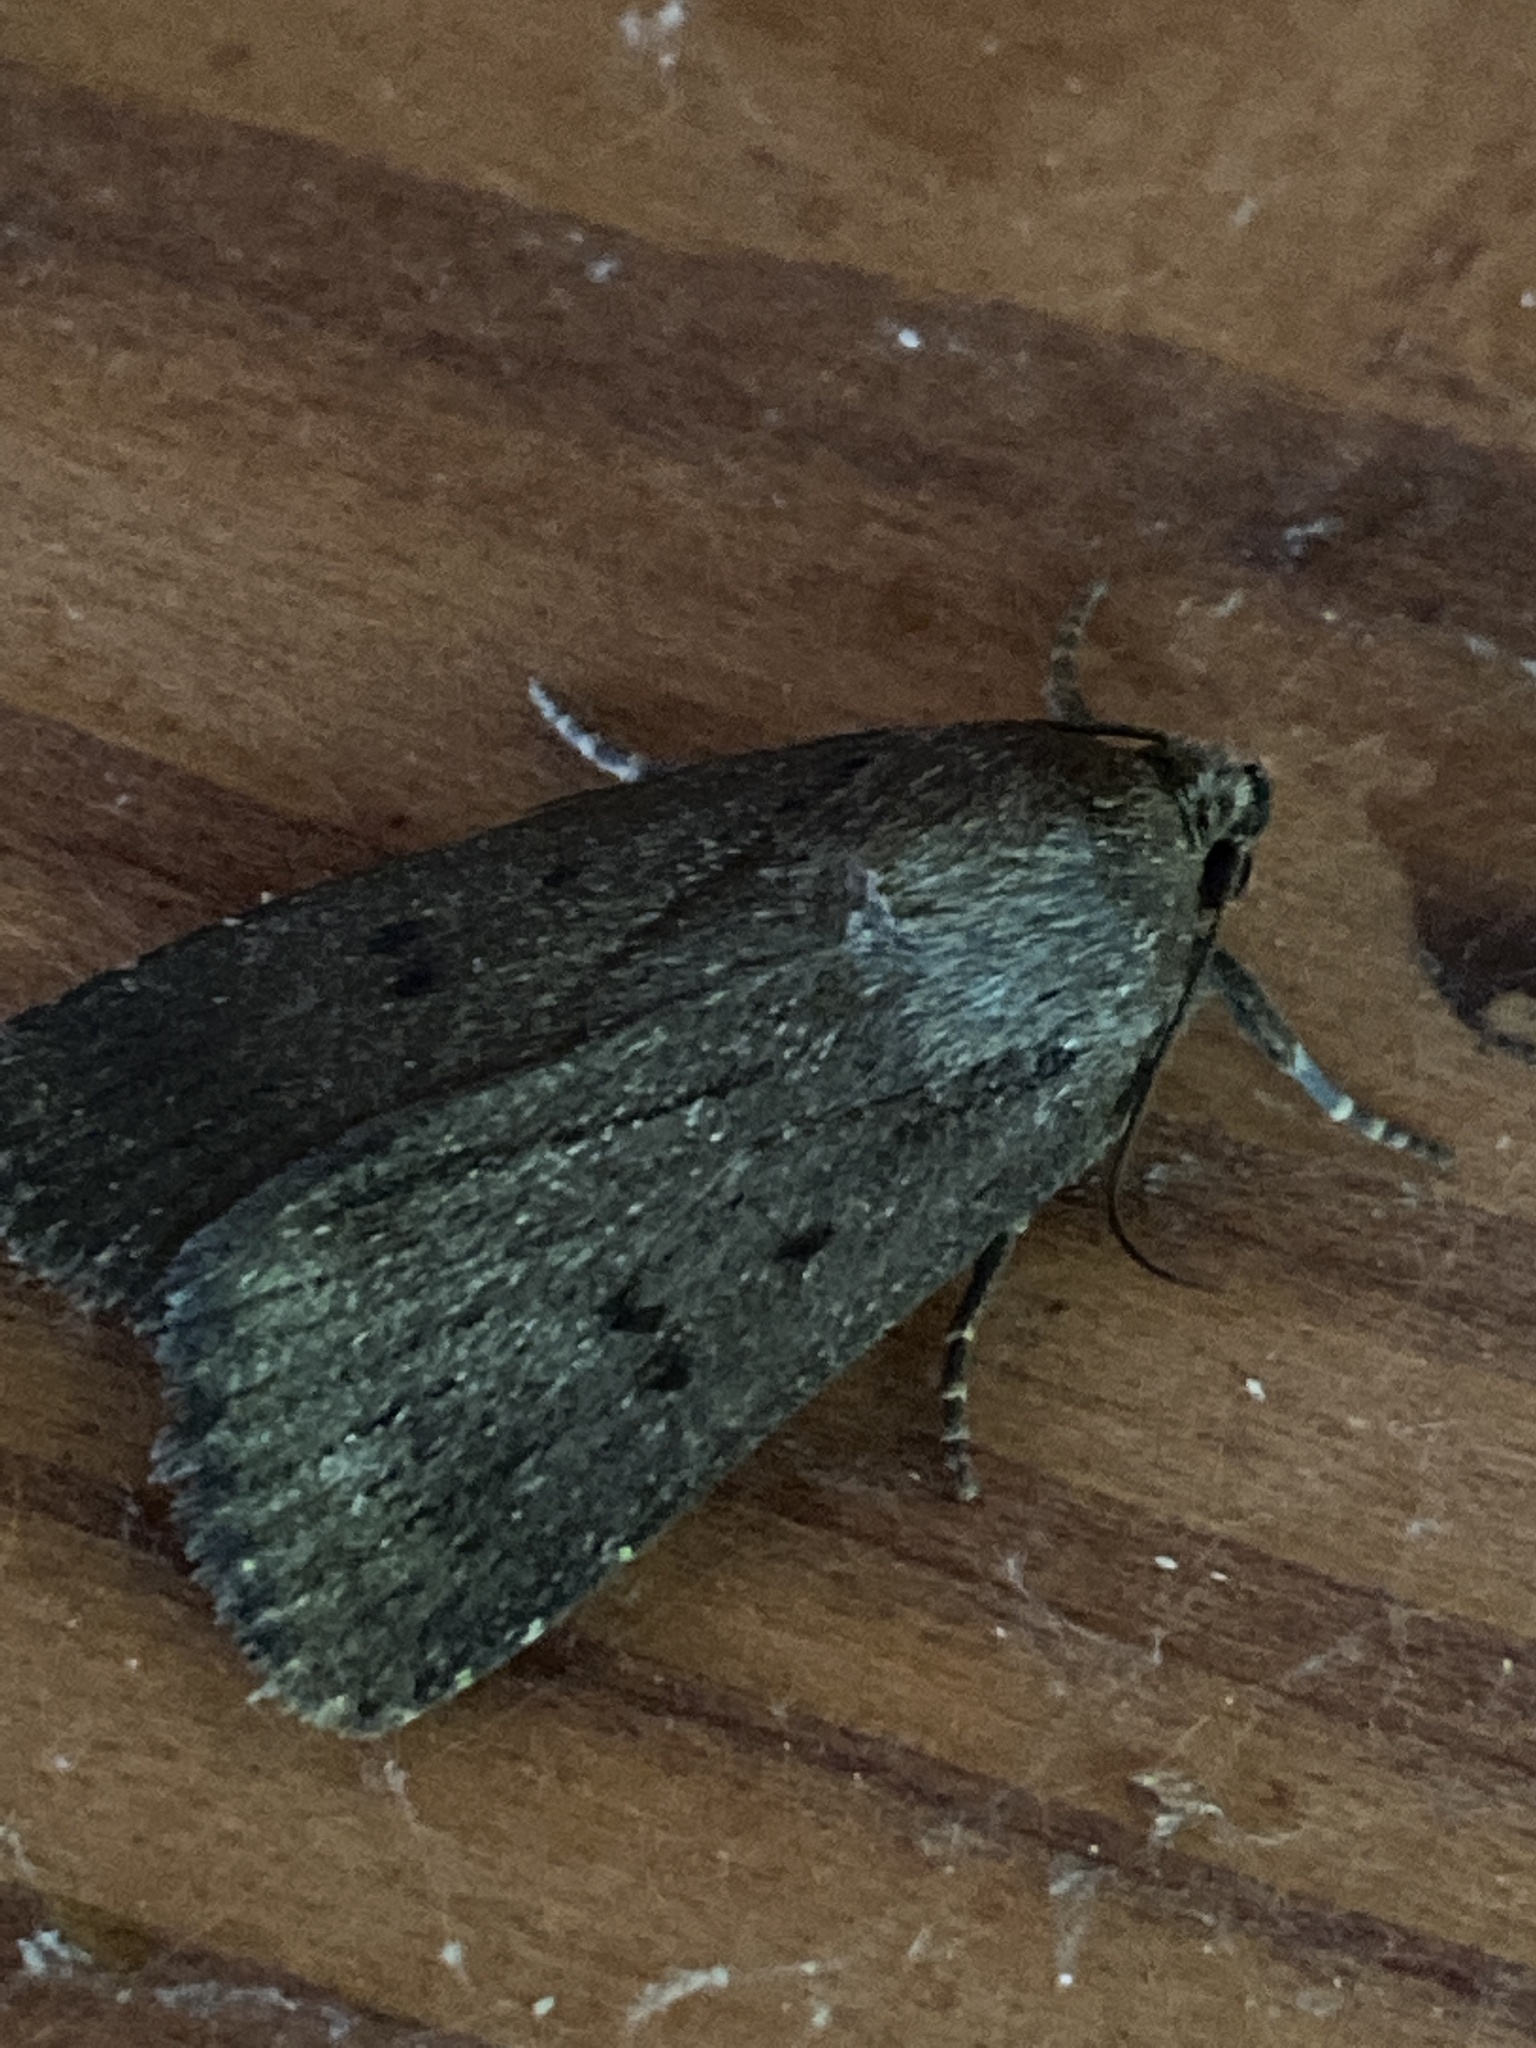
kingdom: Animalia
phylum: Arthropoda
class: Insecta
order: Lepidoptera
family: Noctuidae
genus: Amphipyra
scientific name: Amphipyra tragopoginis
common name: Mouse moth
